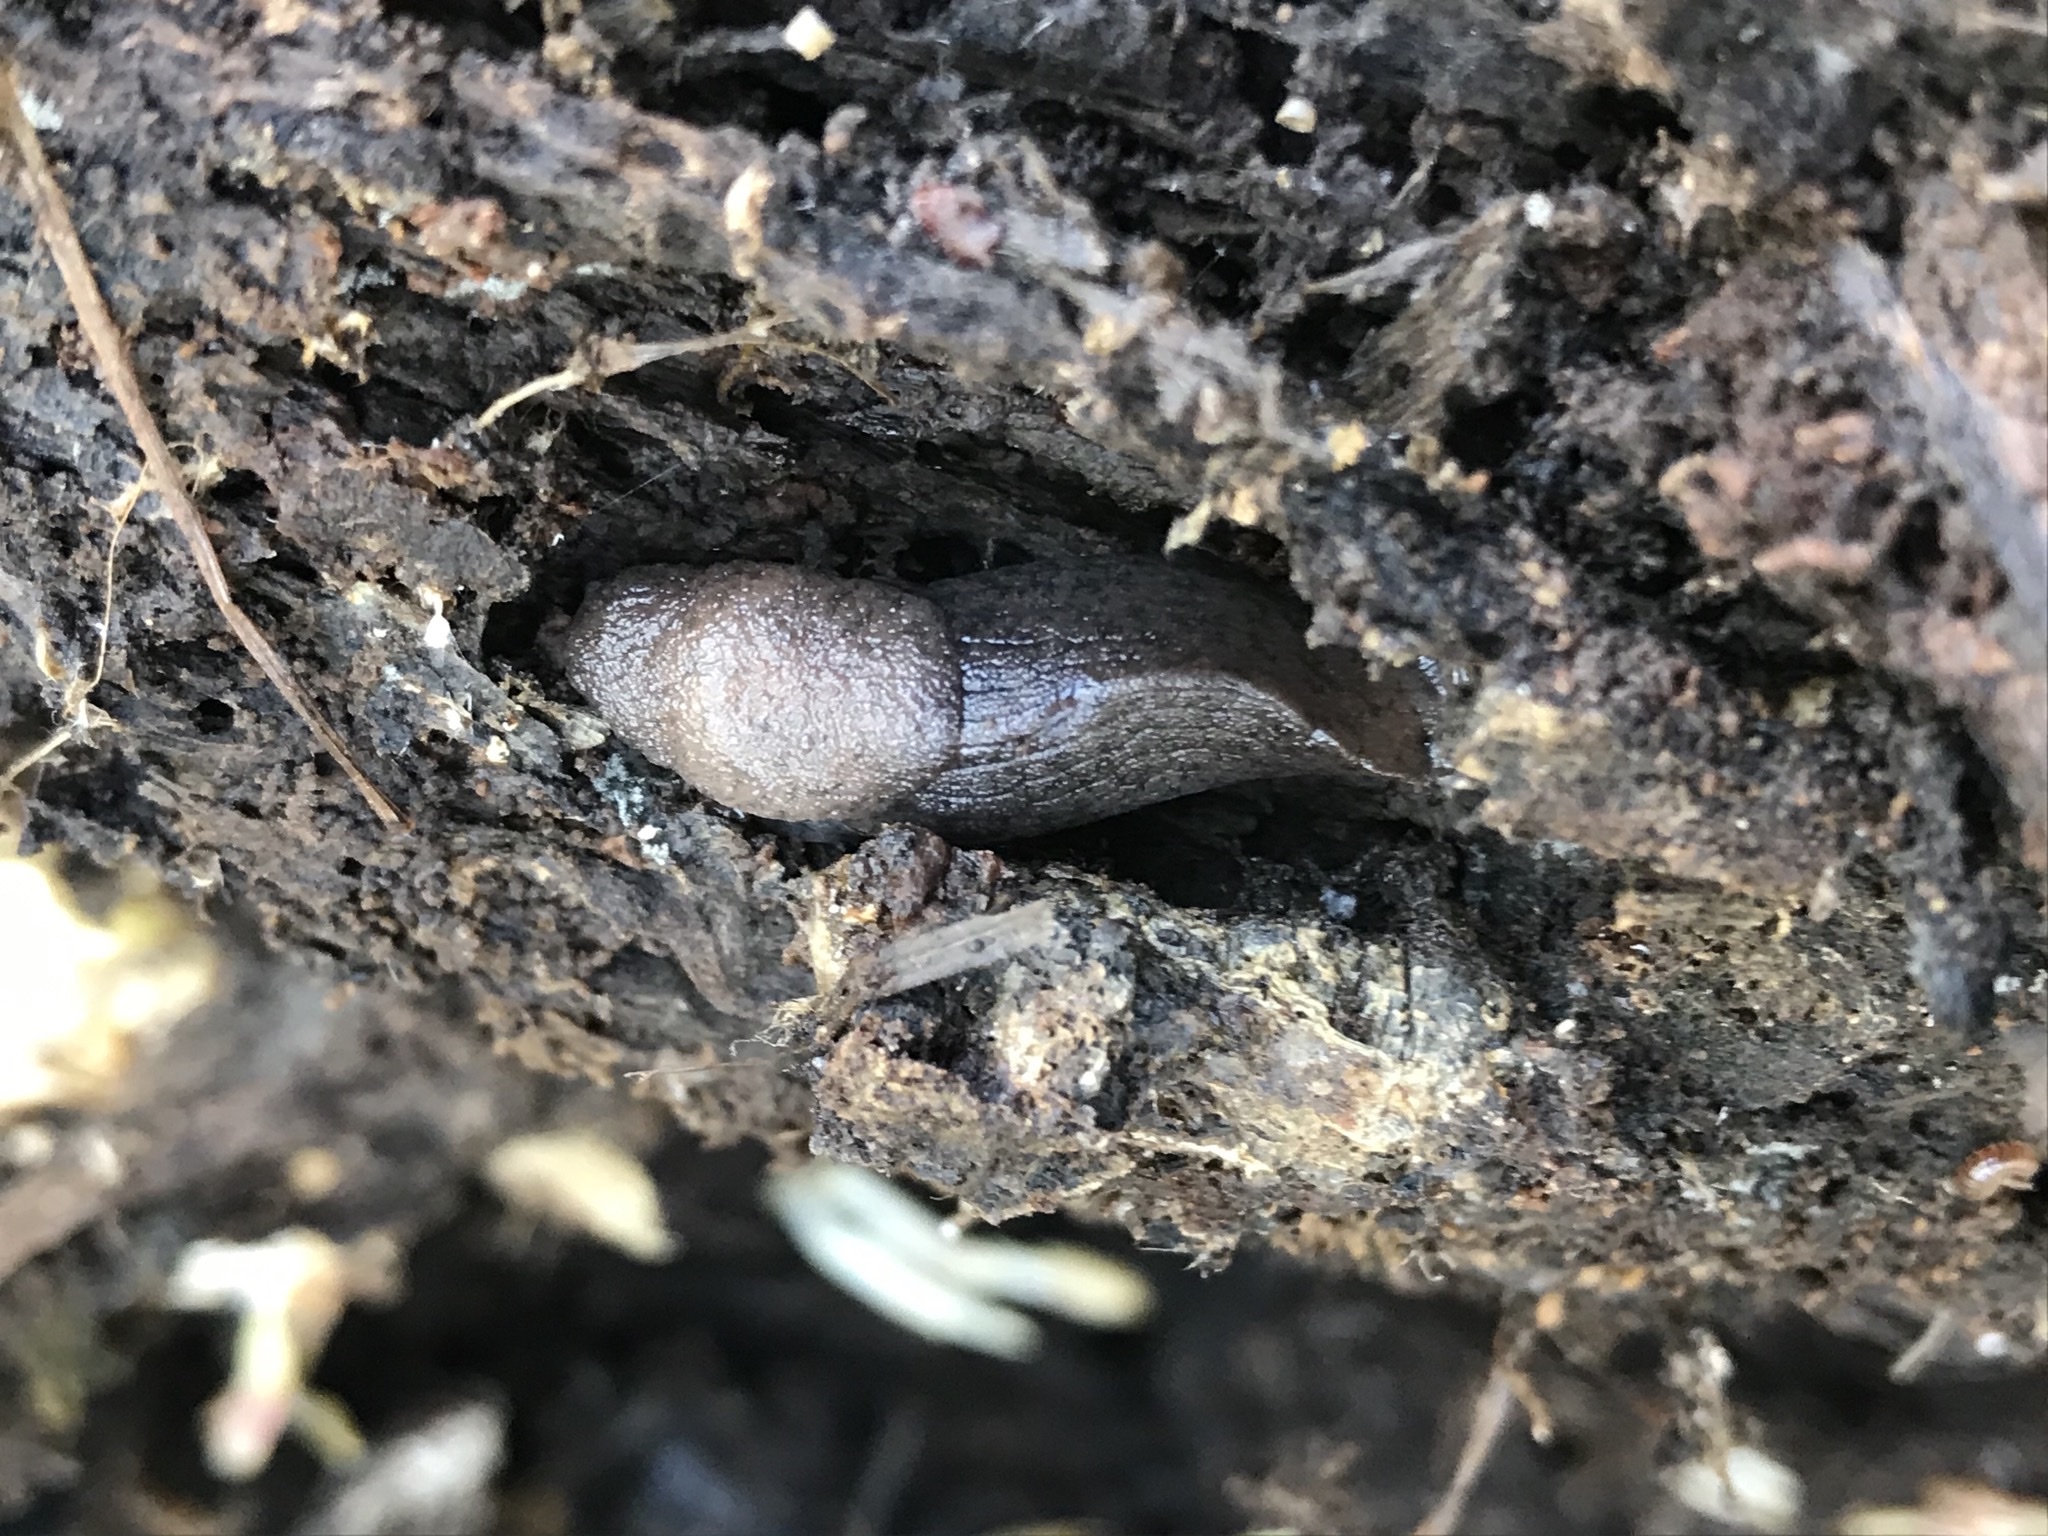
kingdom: Animalia
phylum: Mollusca
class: Gastropoda
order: Stylommatophora
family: Ariolimacidae
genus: Hesperarion
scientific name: Hesperarion niger
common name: Black western slug
